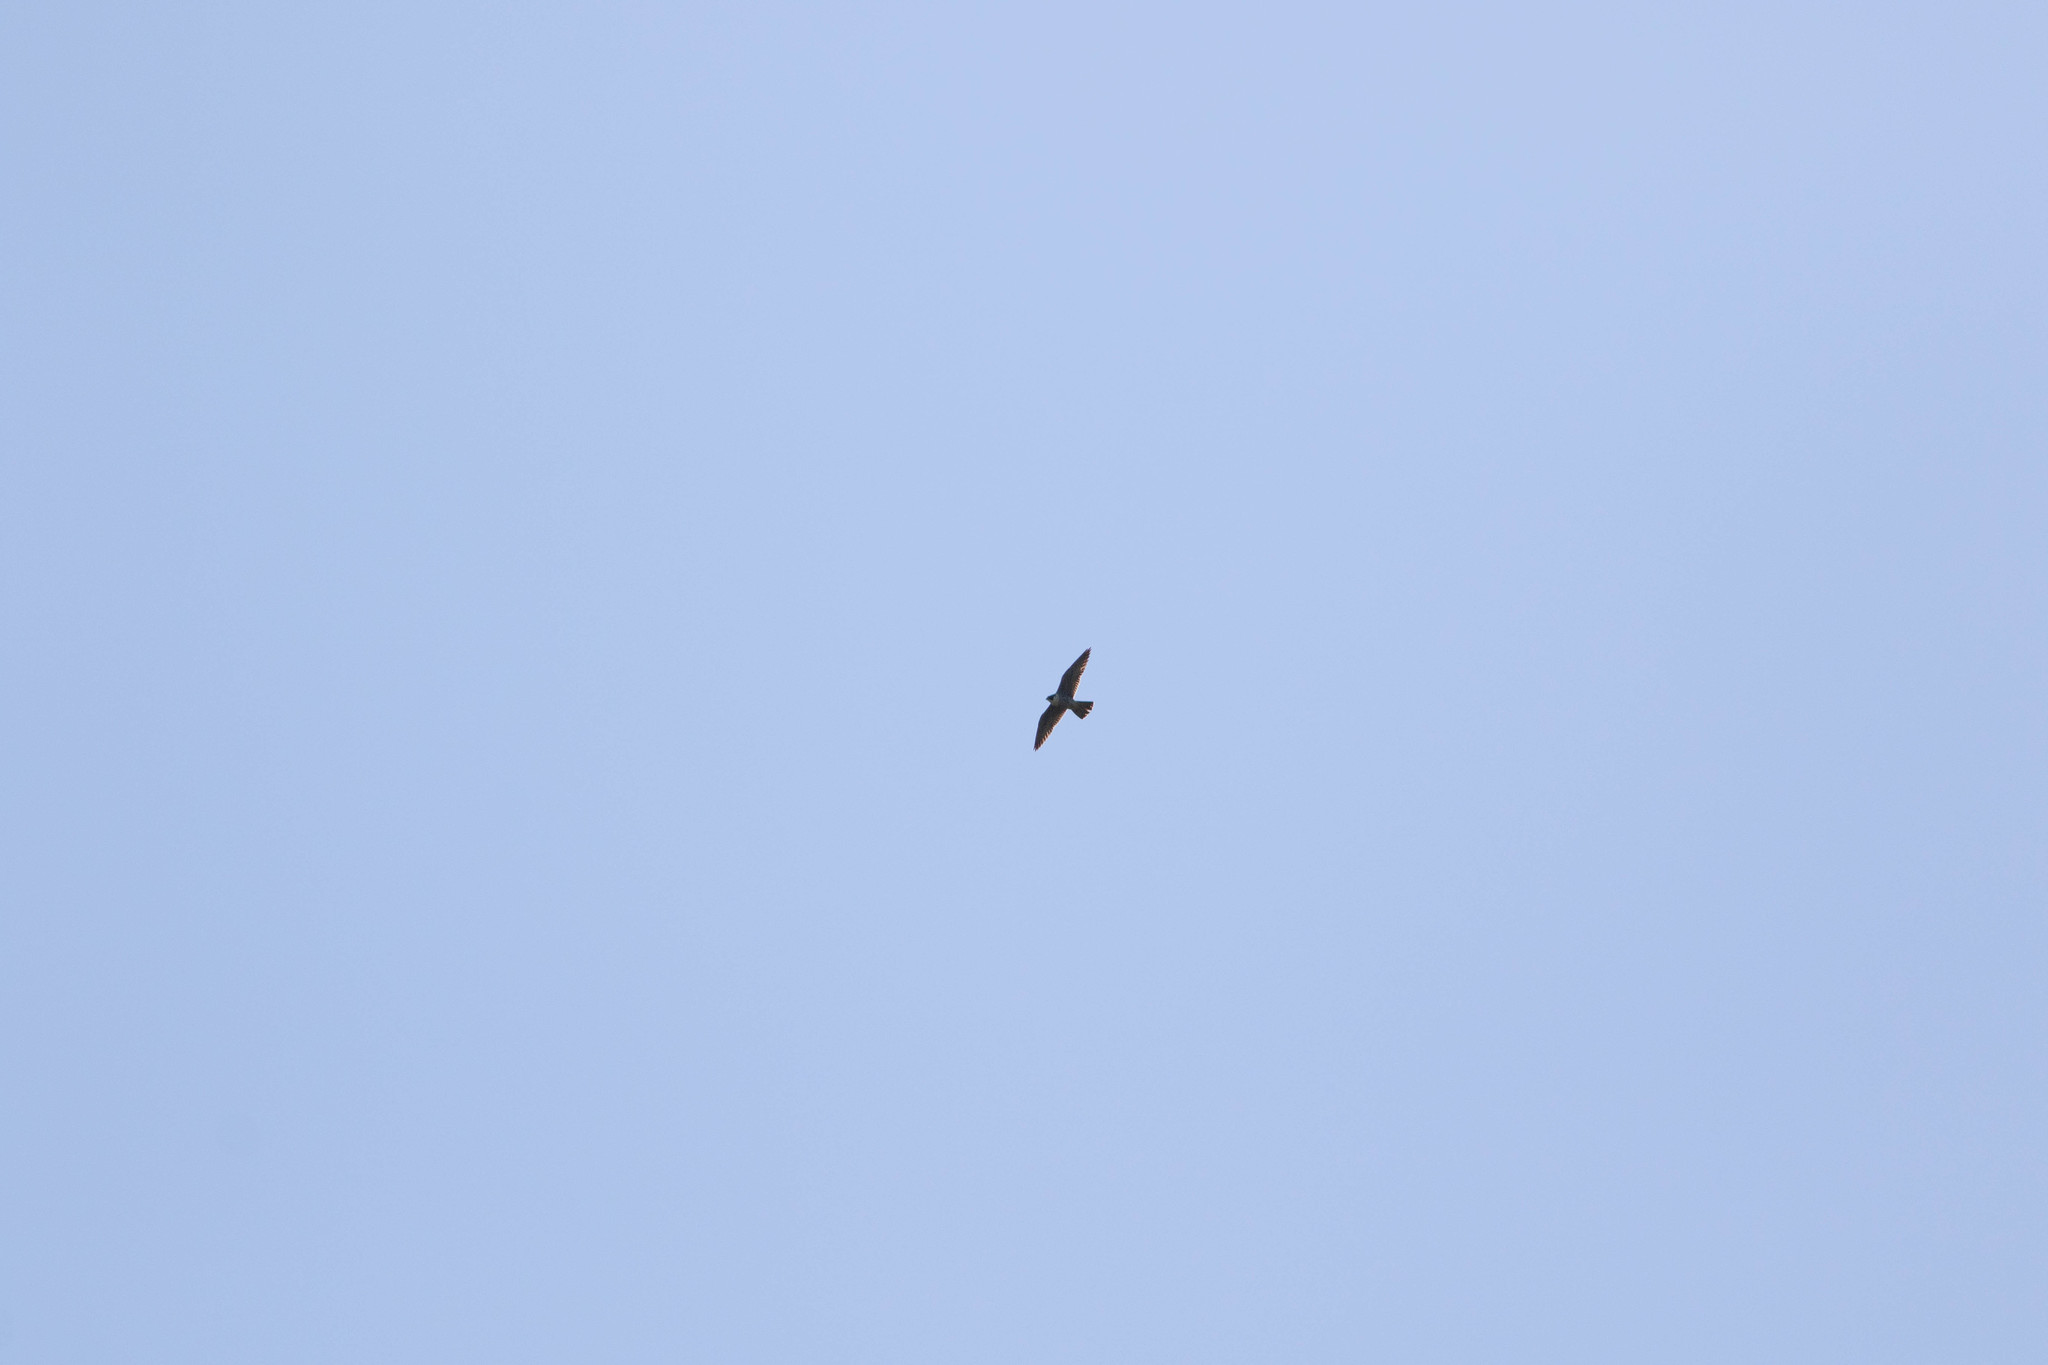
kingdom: Animalia
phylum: Chordata
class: Aves
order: Falconiformes
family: Falconidae
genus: Falco
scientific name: Falco peregrinus
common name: Peregrine falcon
